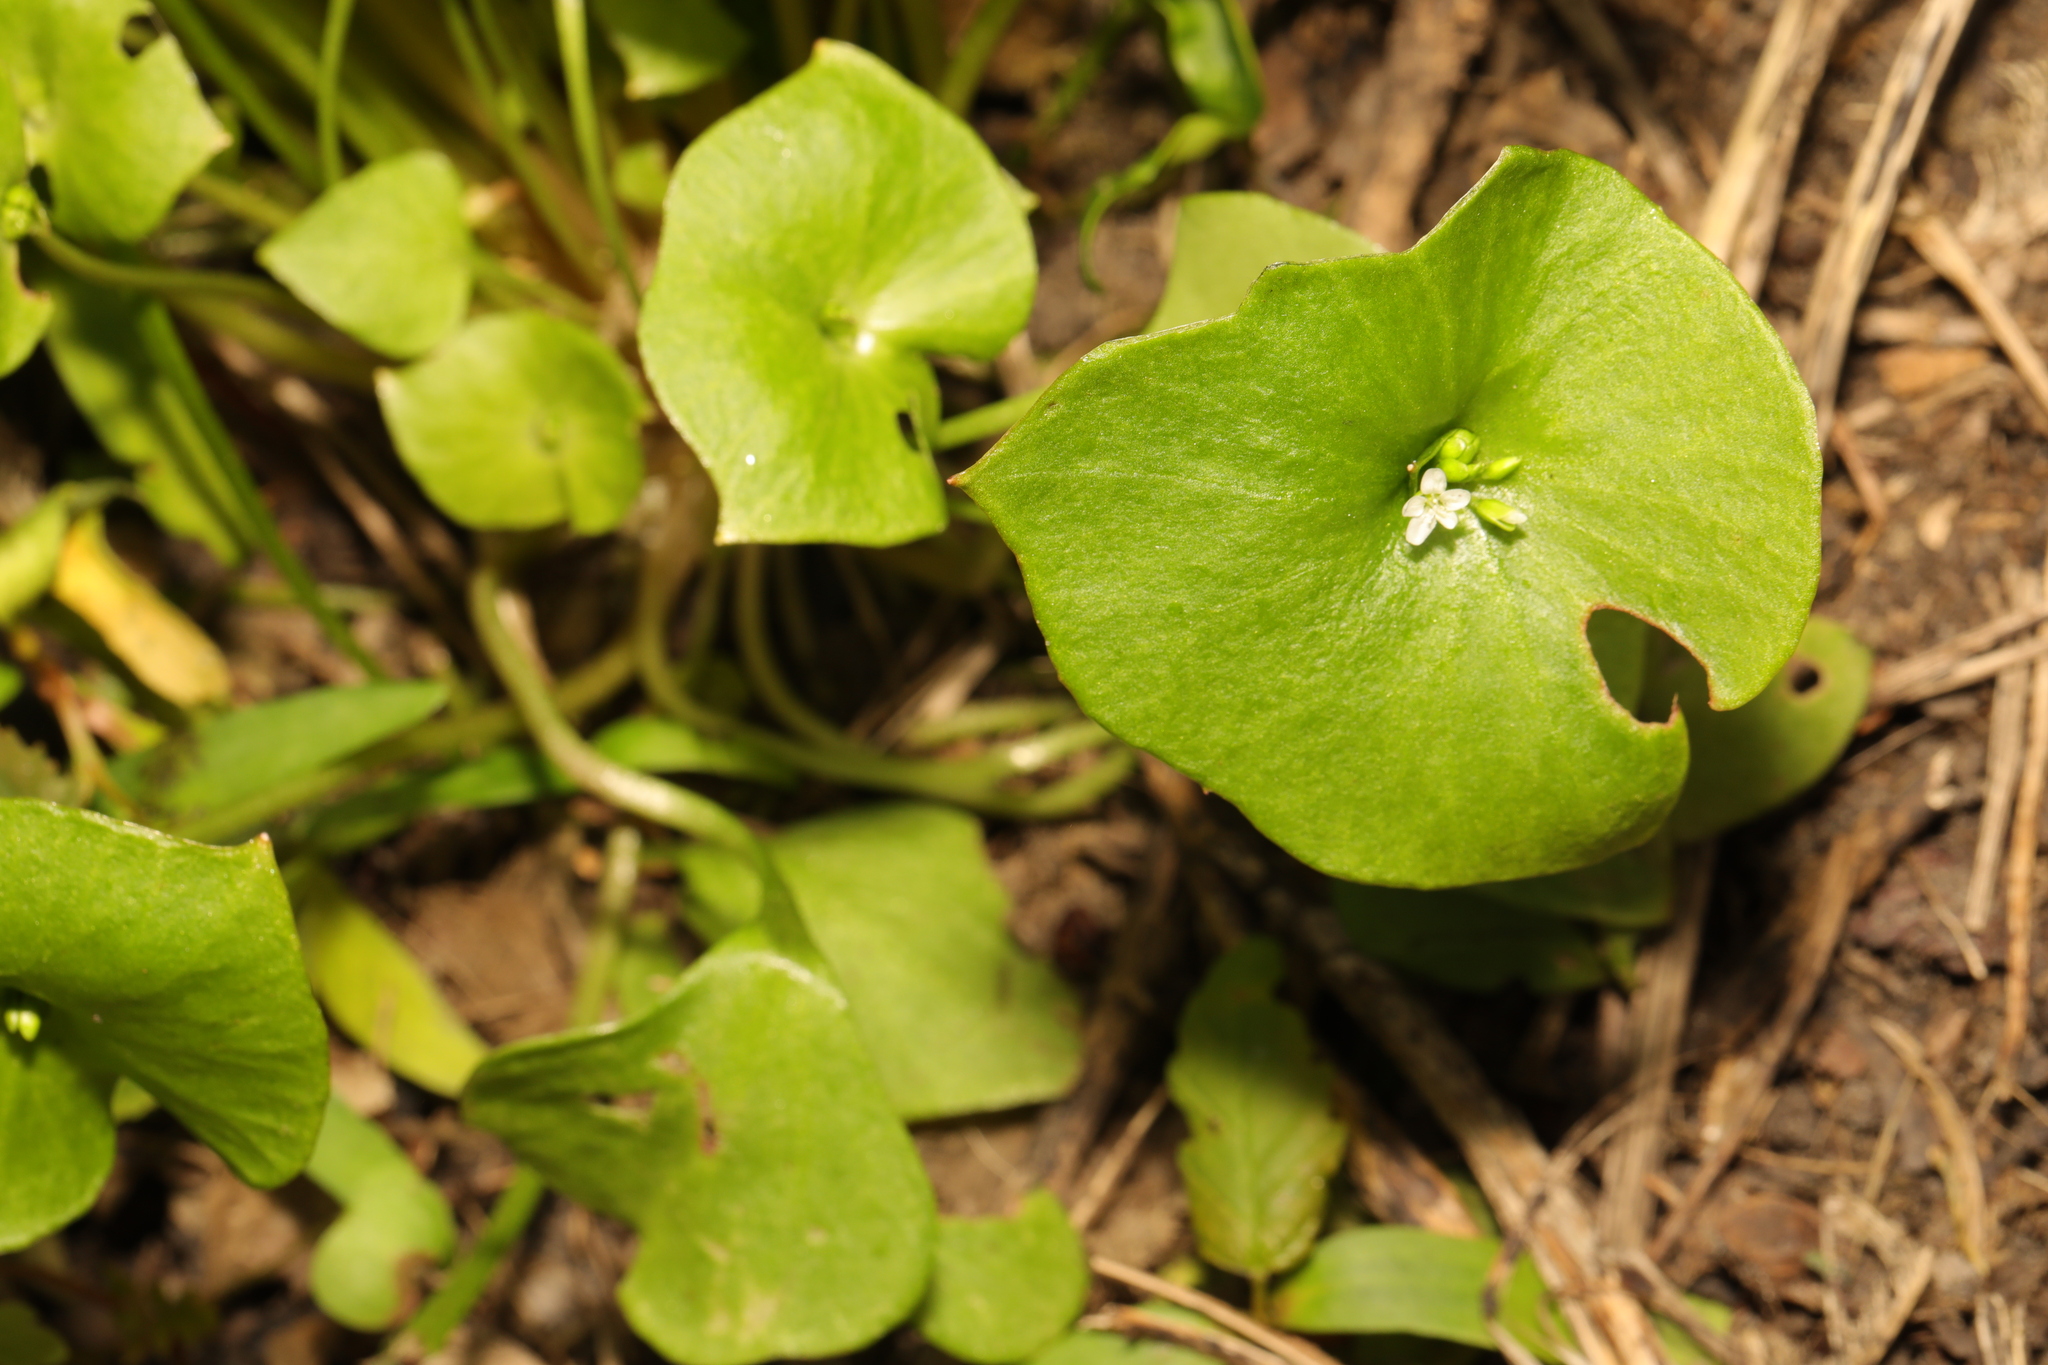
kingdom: Plantae
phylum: Tracheophyta
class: Magnoliopsida
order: Caryophyllales
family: Montiaceae
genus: Claytonia
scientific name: Claytonia perfoliata
